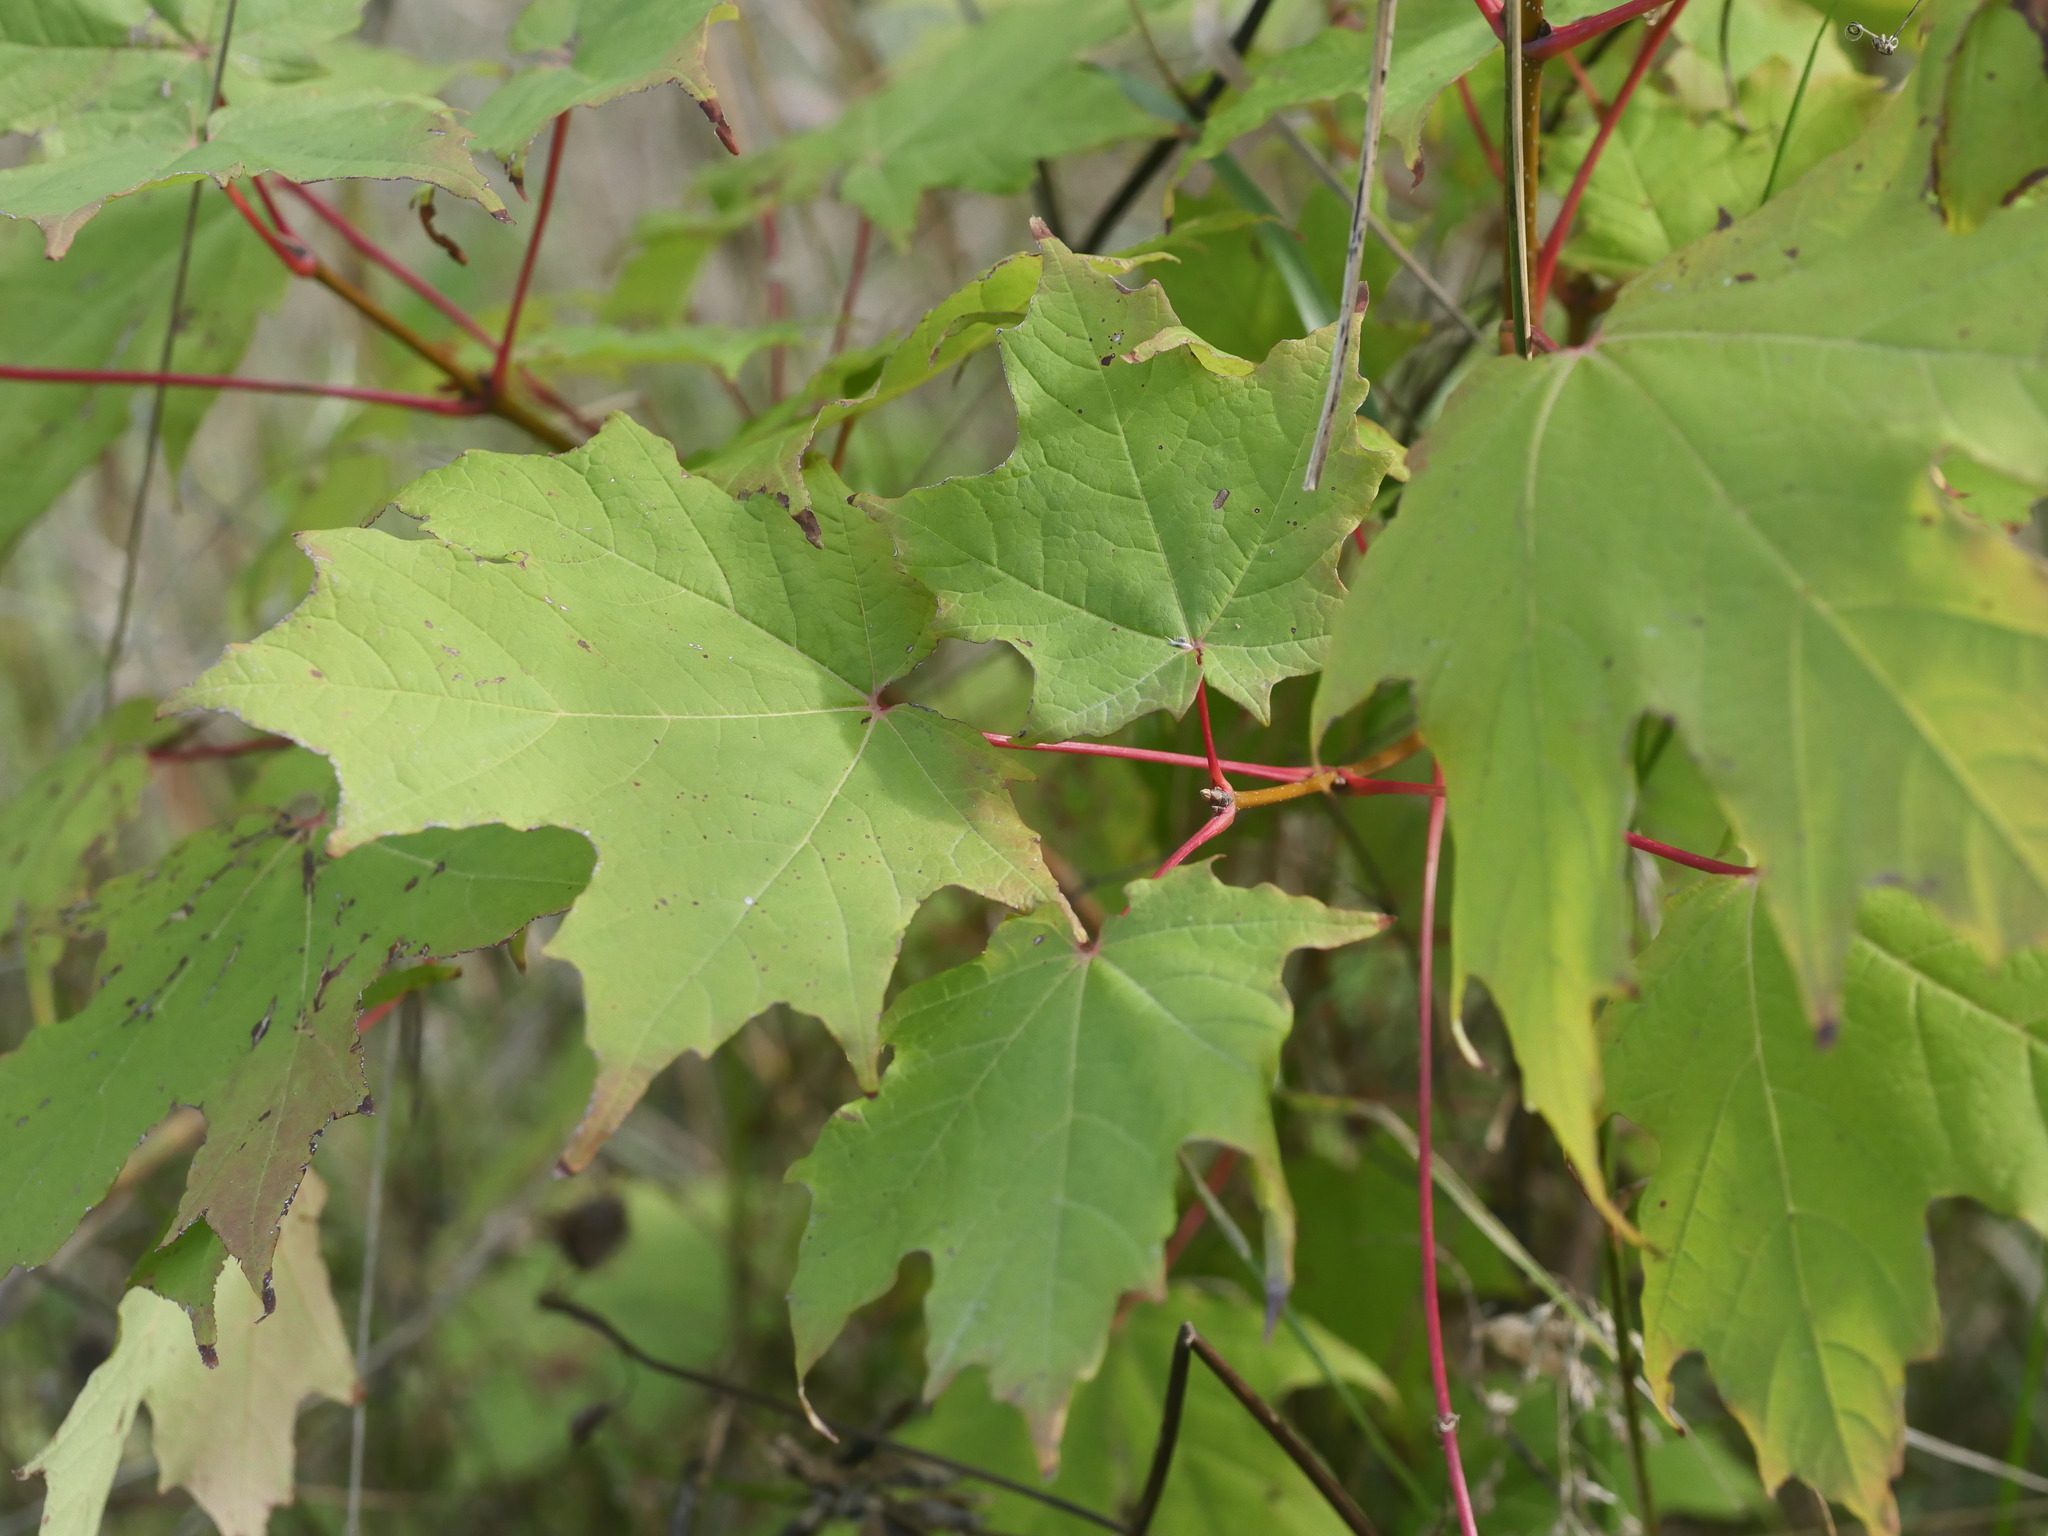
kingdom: Plantae
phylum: Tracheophyta
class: Magnoliopsida
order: Sapindales
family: Sapindaceae
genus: Acer
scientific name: Acer saccharum
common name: Sugar maple
